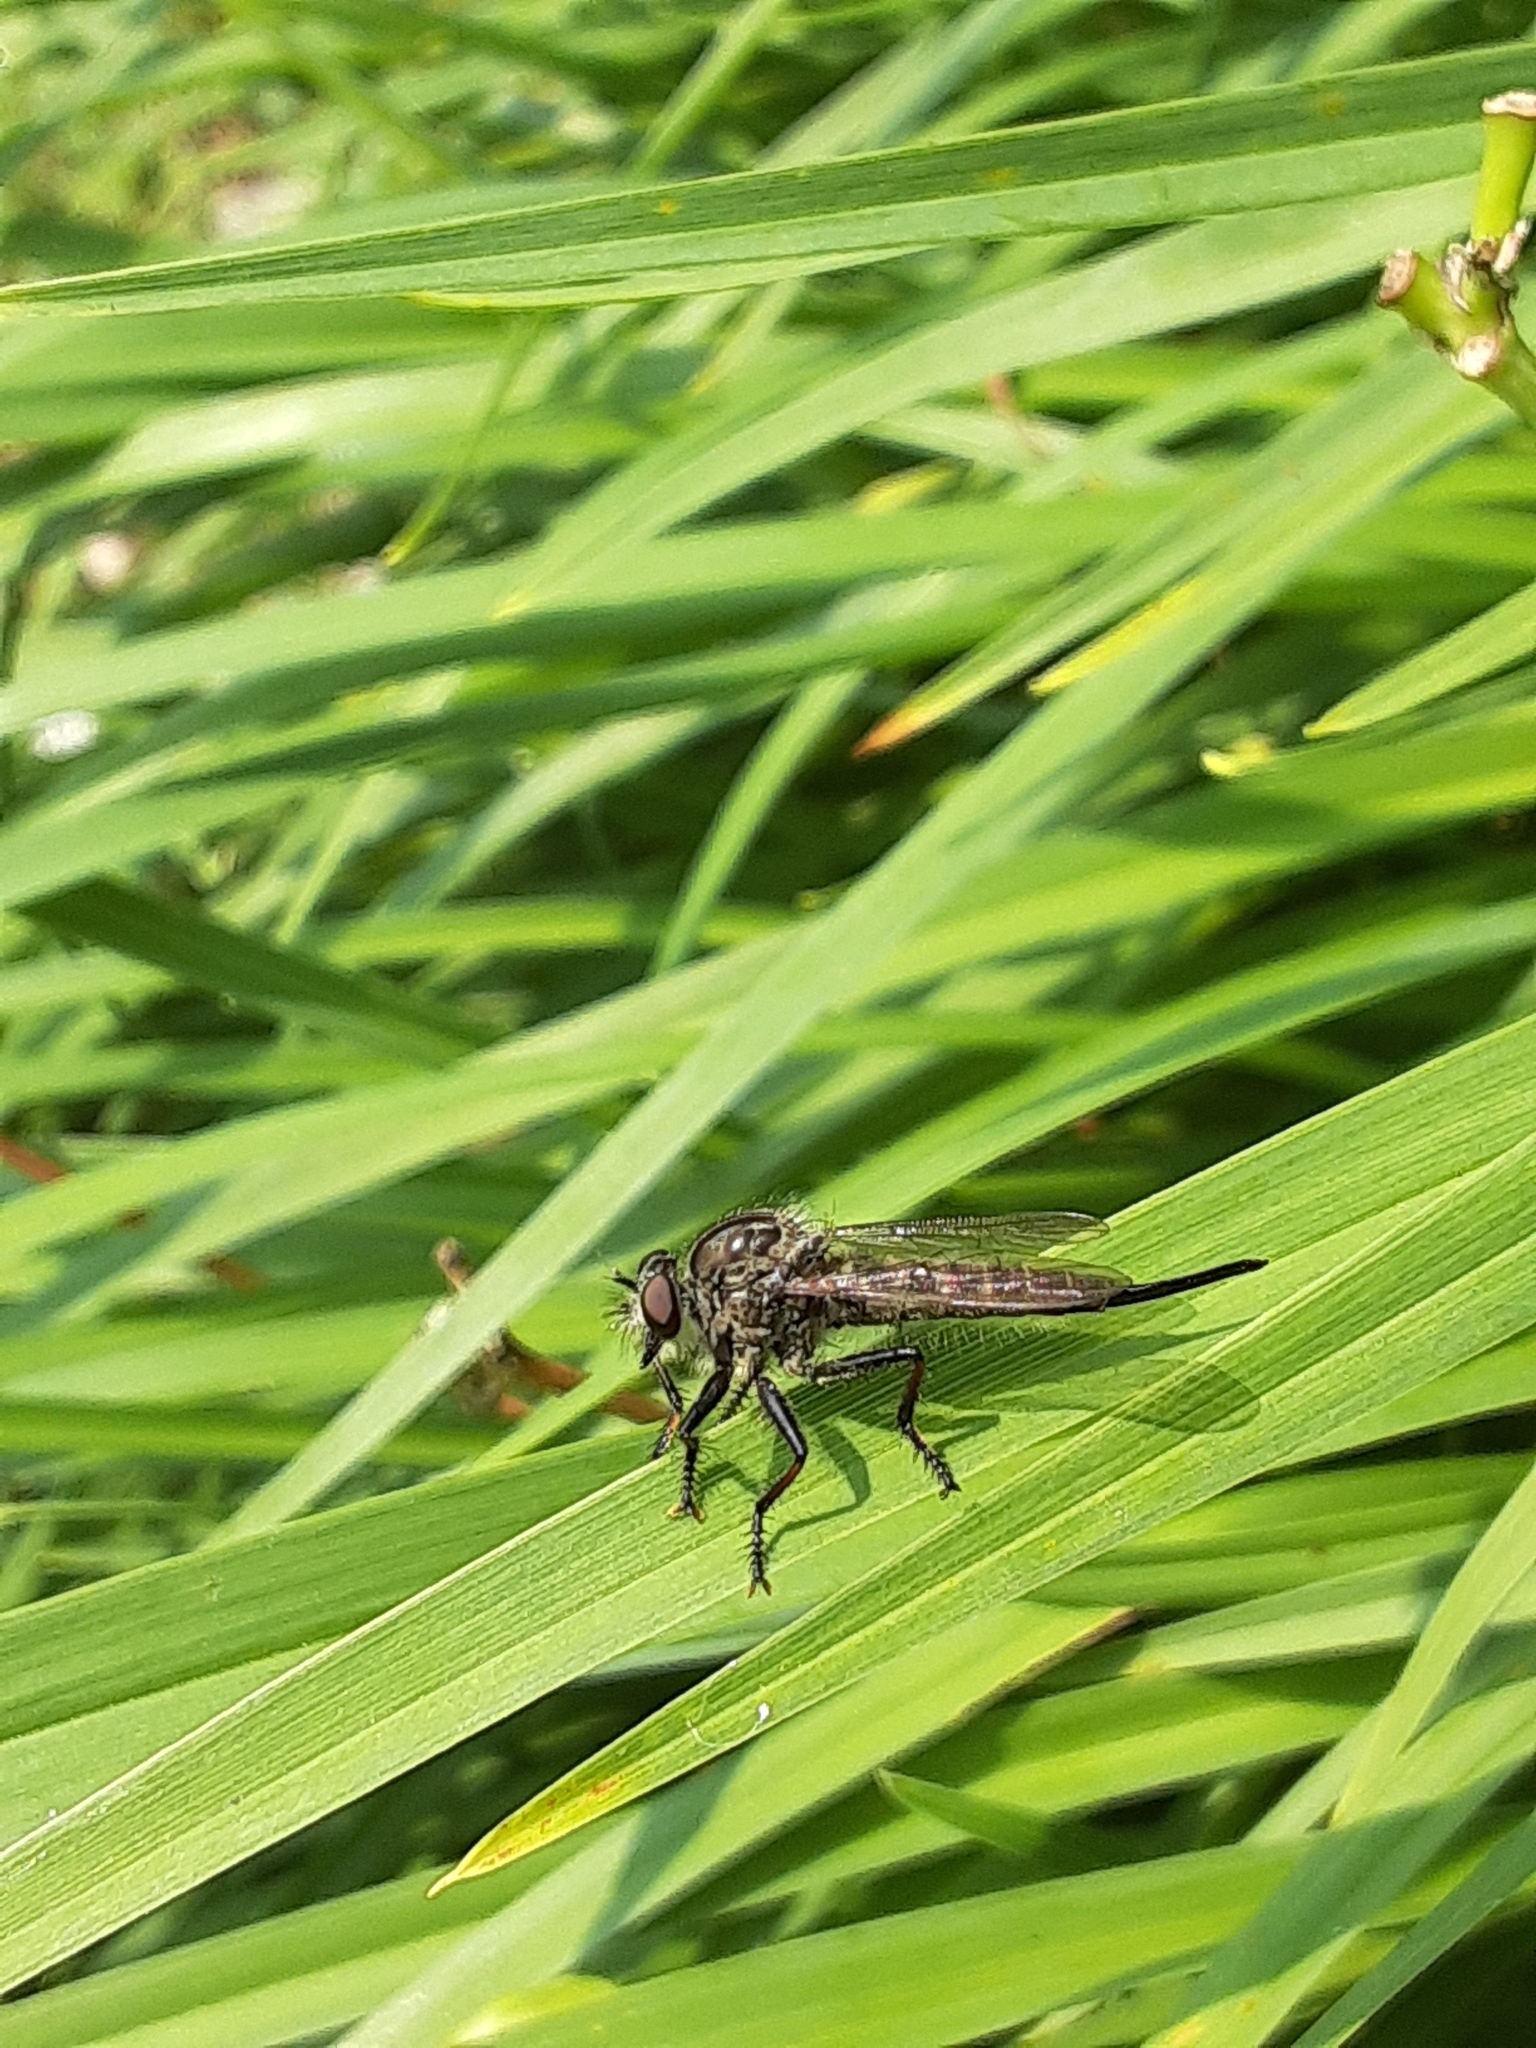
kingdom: Animalia
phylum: Arthropoda
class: Insecta
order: Diptera
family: Asilidae
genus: Efferia
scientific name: Efferia aestuans
